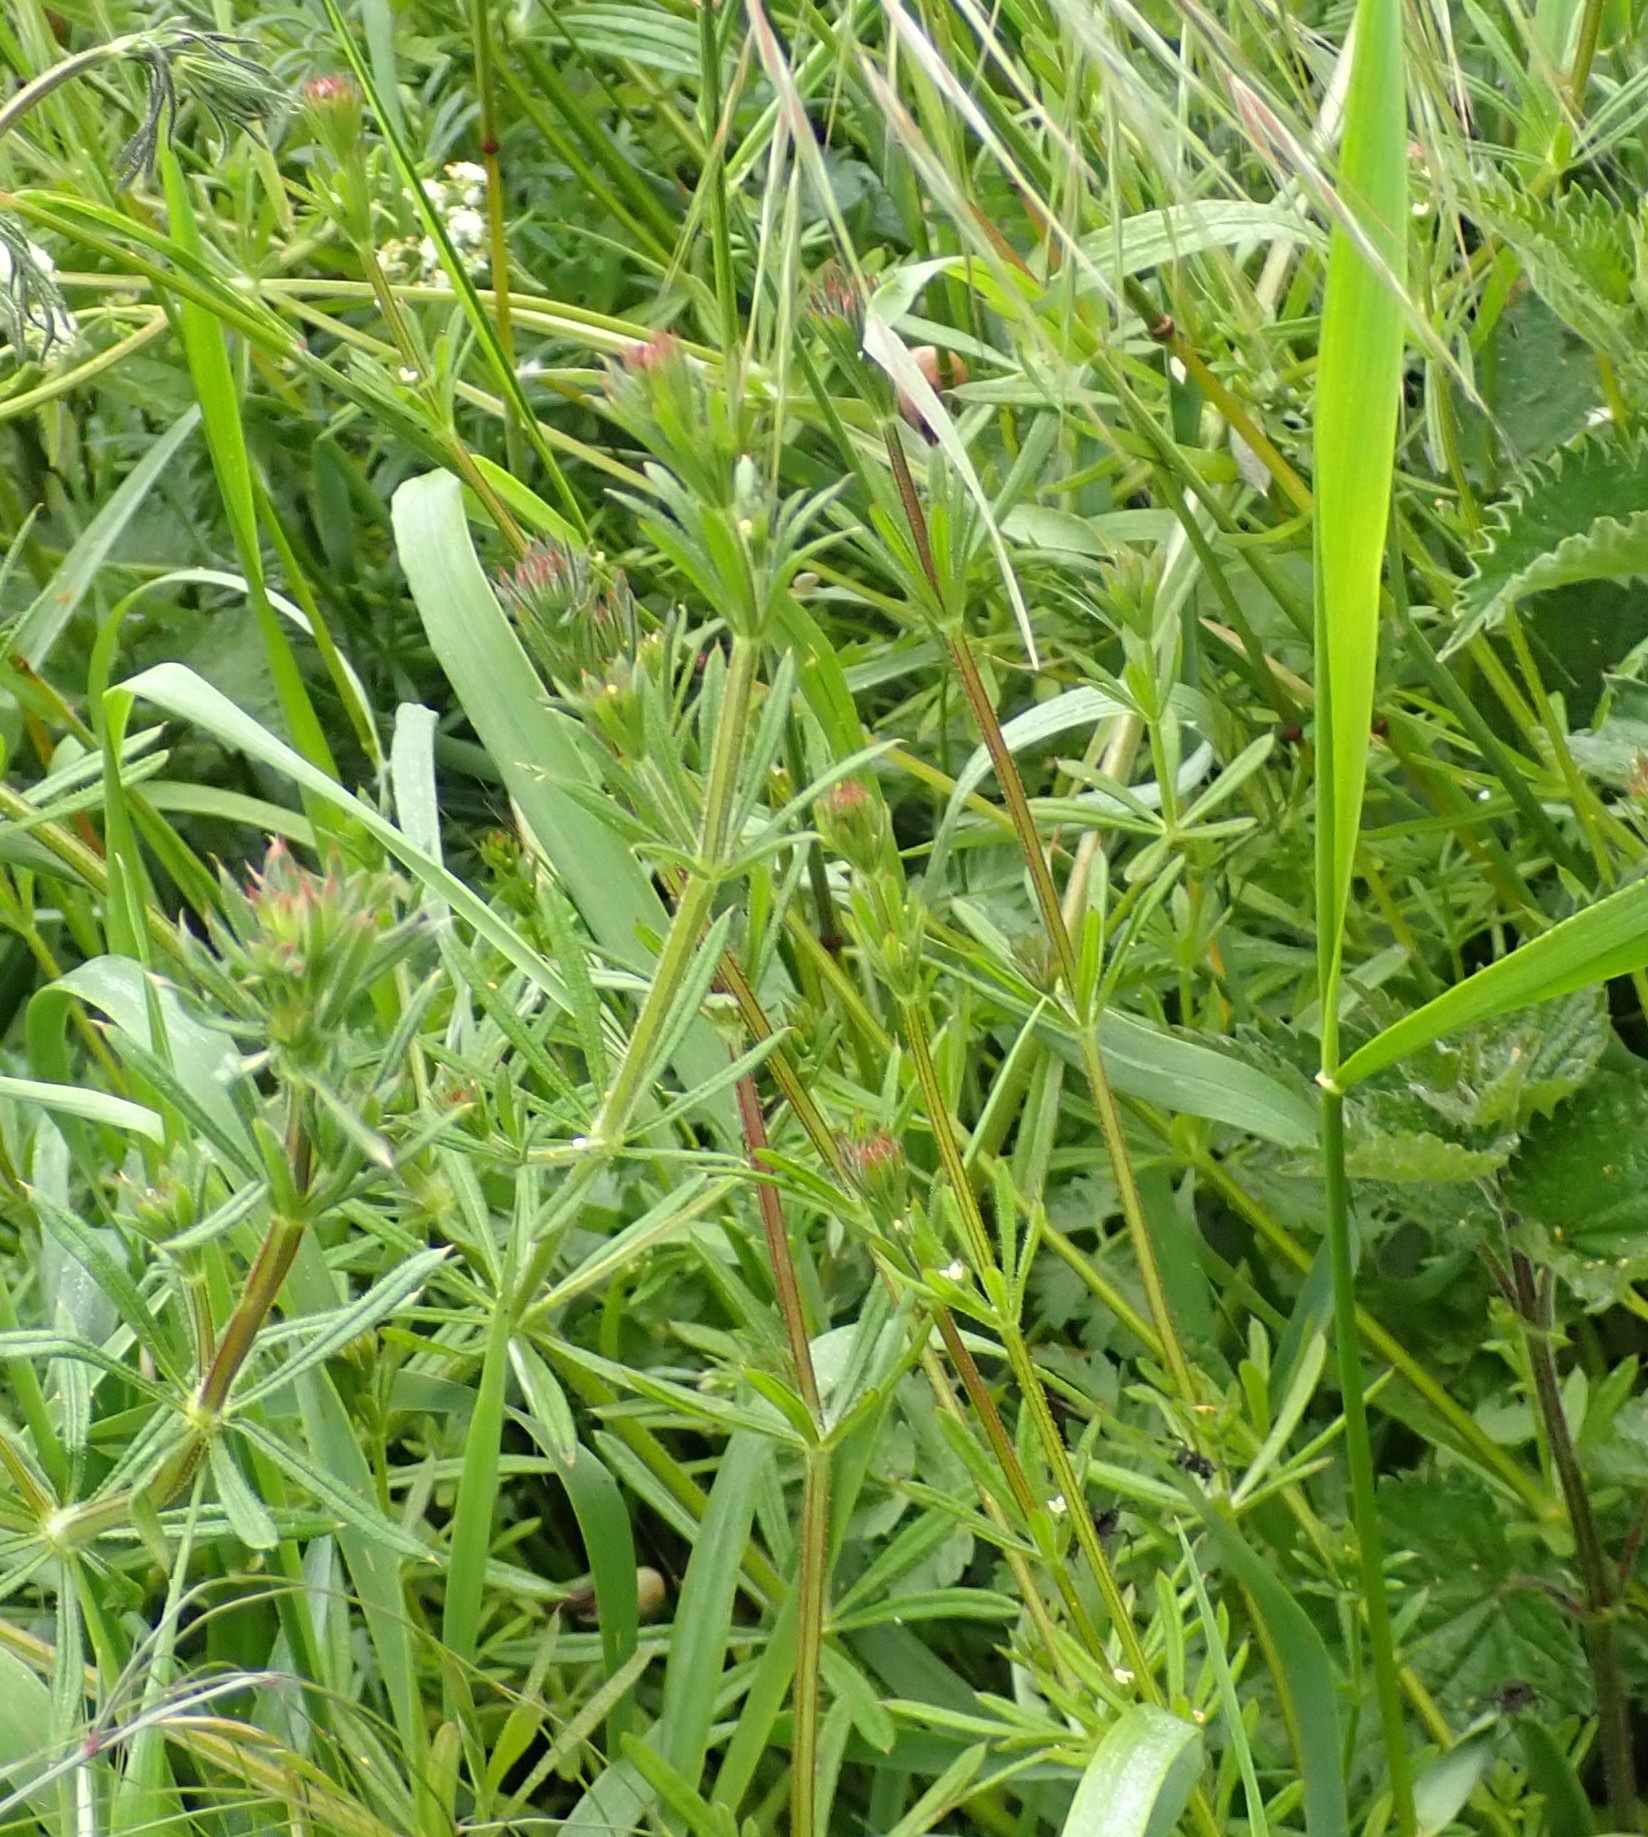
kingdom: Plantae
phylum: Tracheophyta
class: Magnoliopsida
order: Gentianales
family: Rubiaceae
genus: Galium
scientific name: Galium aparine
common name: Cleavers
